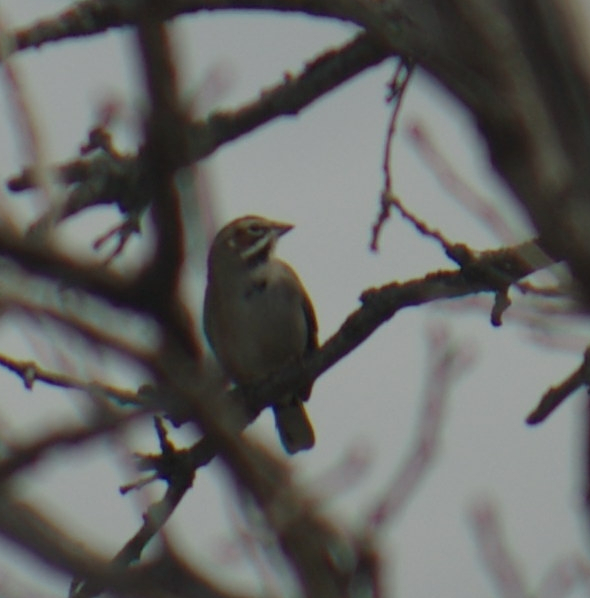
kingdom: Animalia
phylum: Chordata
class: Aves
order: Passeriformes
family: Passerellidae
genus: Chondestes
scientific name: Chondestes grammacus
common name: Lark sparrow
